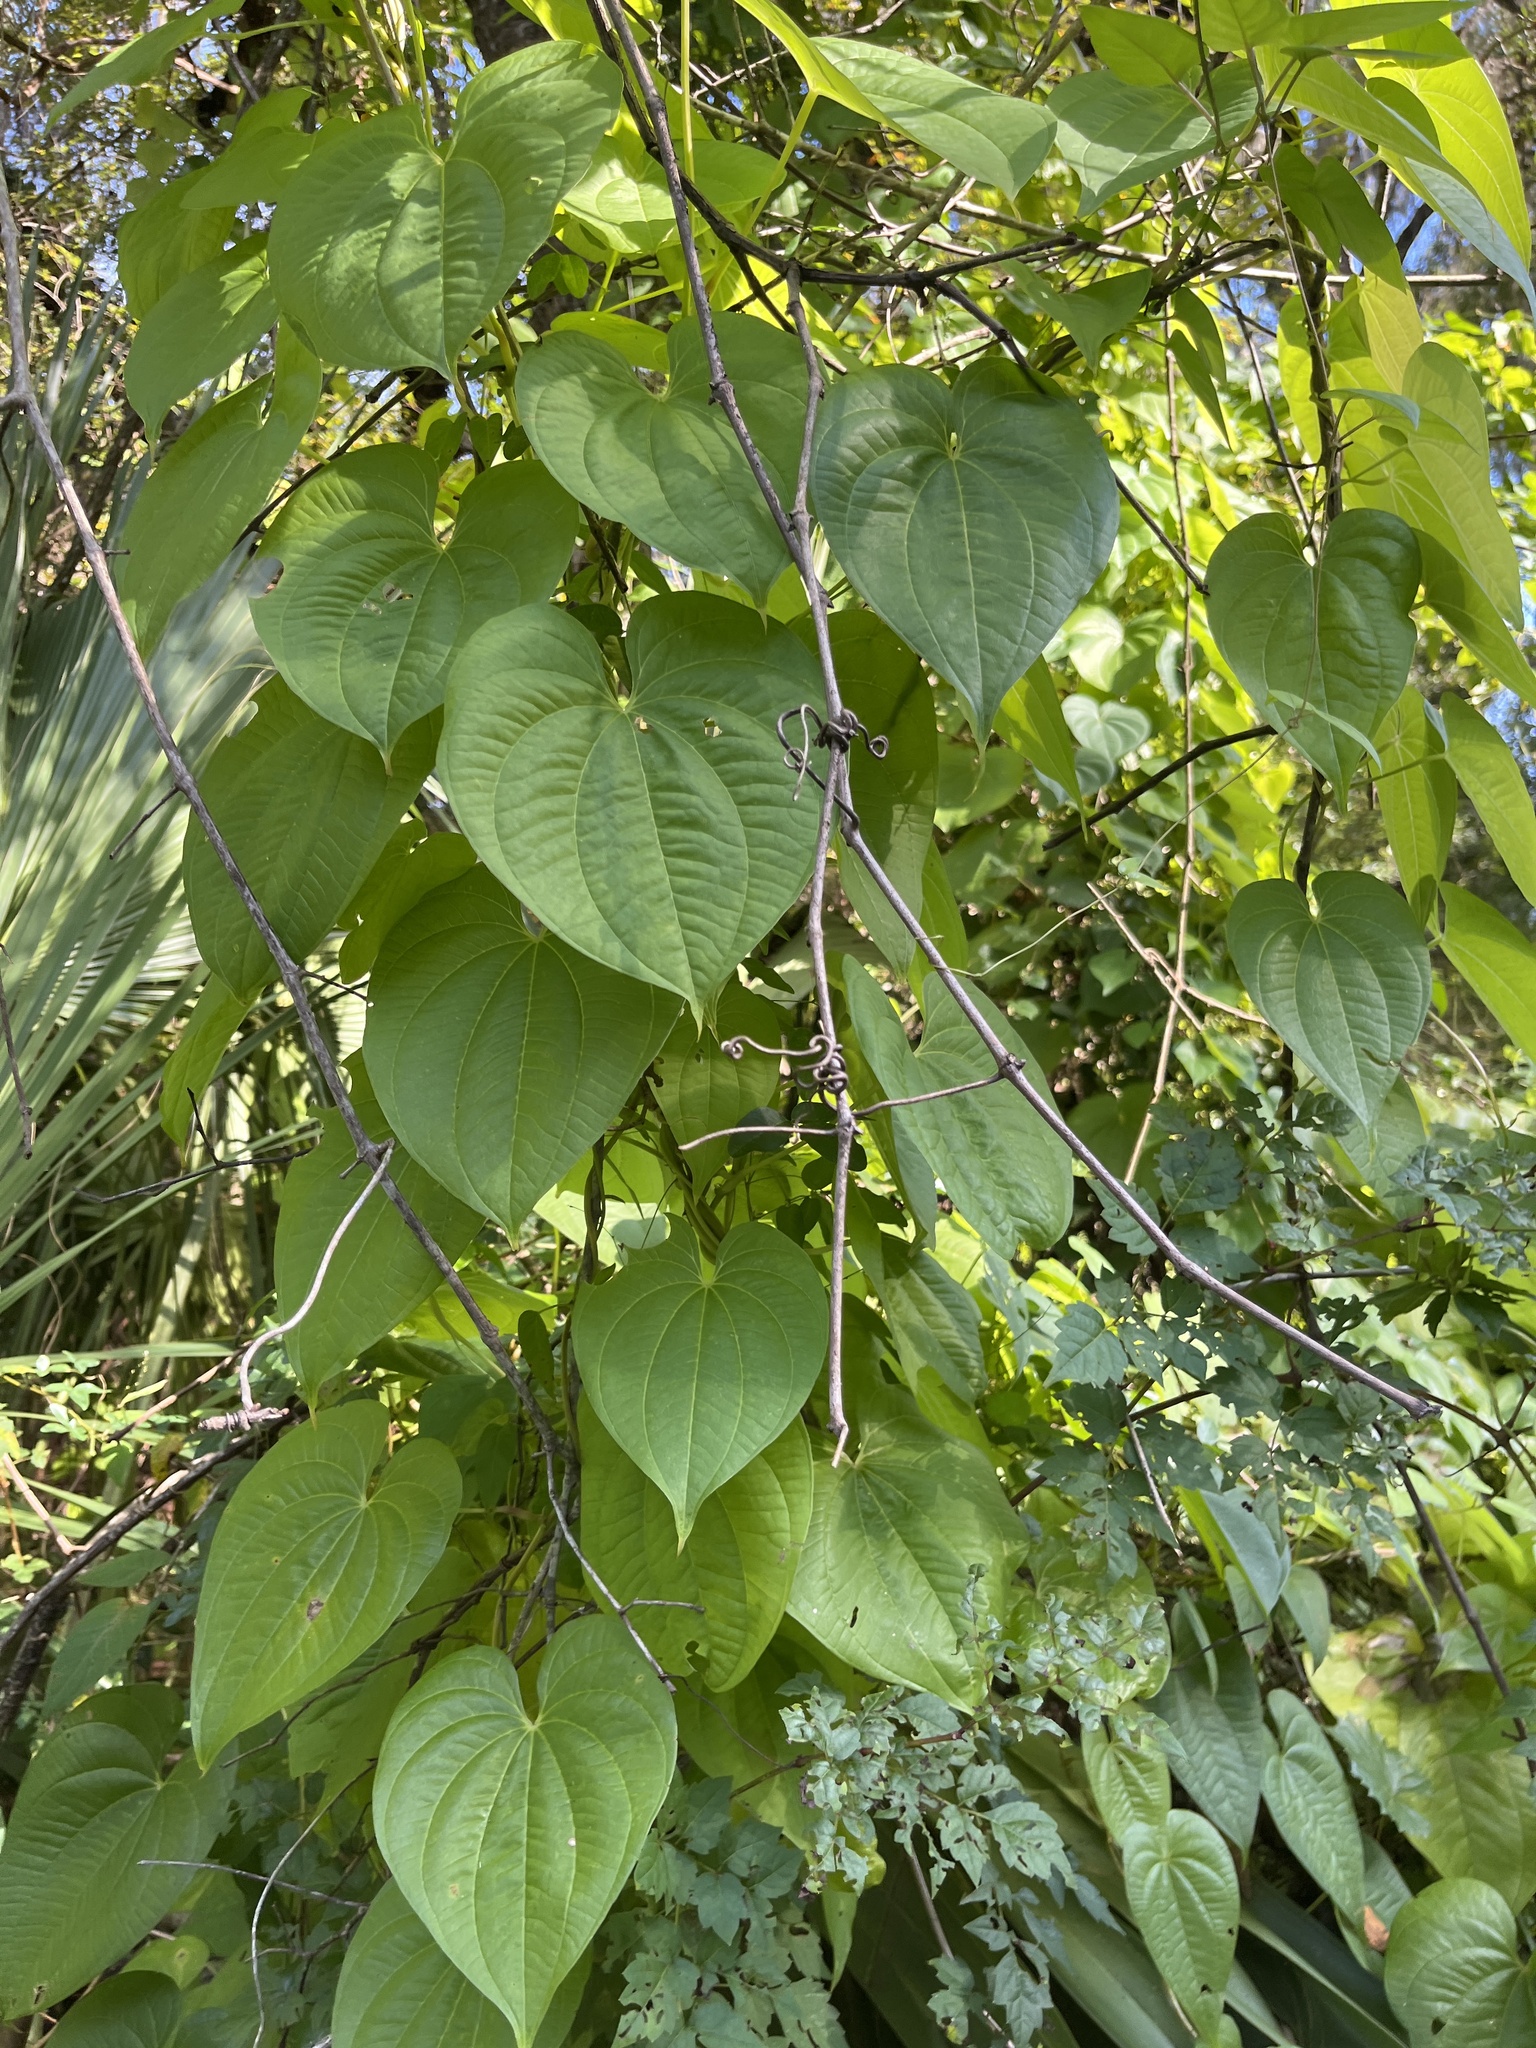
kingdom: Plantae
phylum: Tracheophyta
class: Liliopsida
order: Dioscoreales
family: Dioscoreaceae
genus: Dioscorea
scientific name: Dioscorea bulbifera
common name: Air yam
